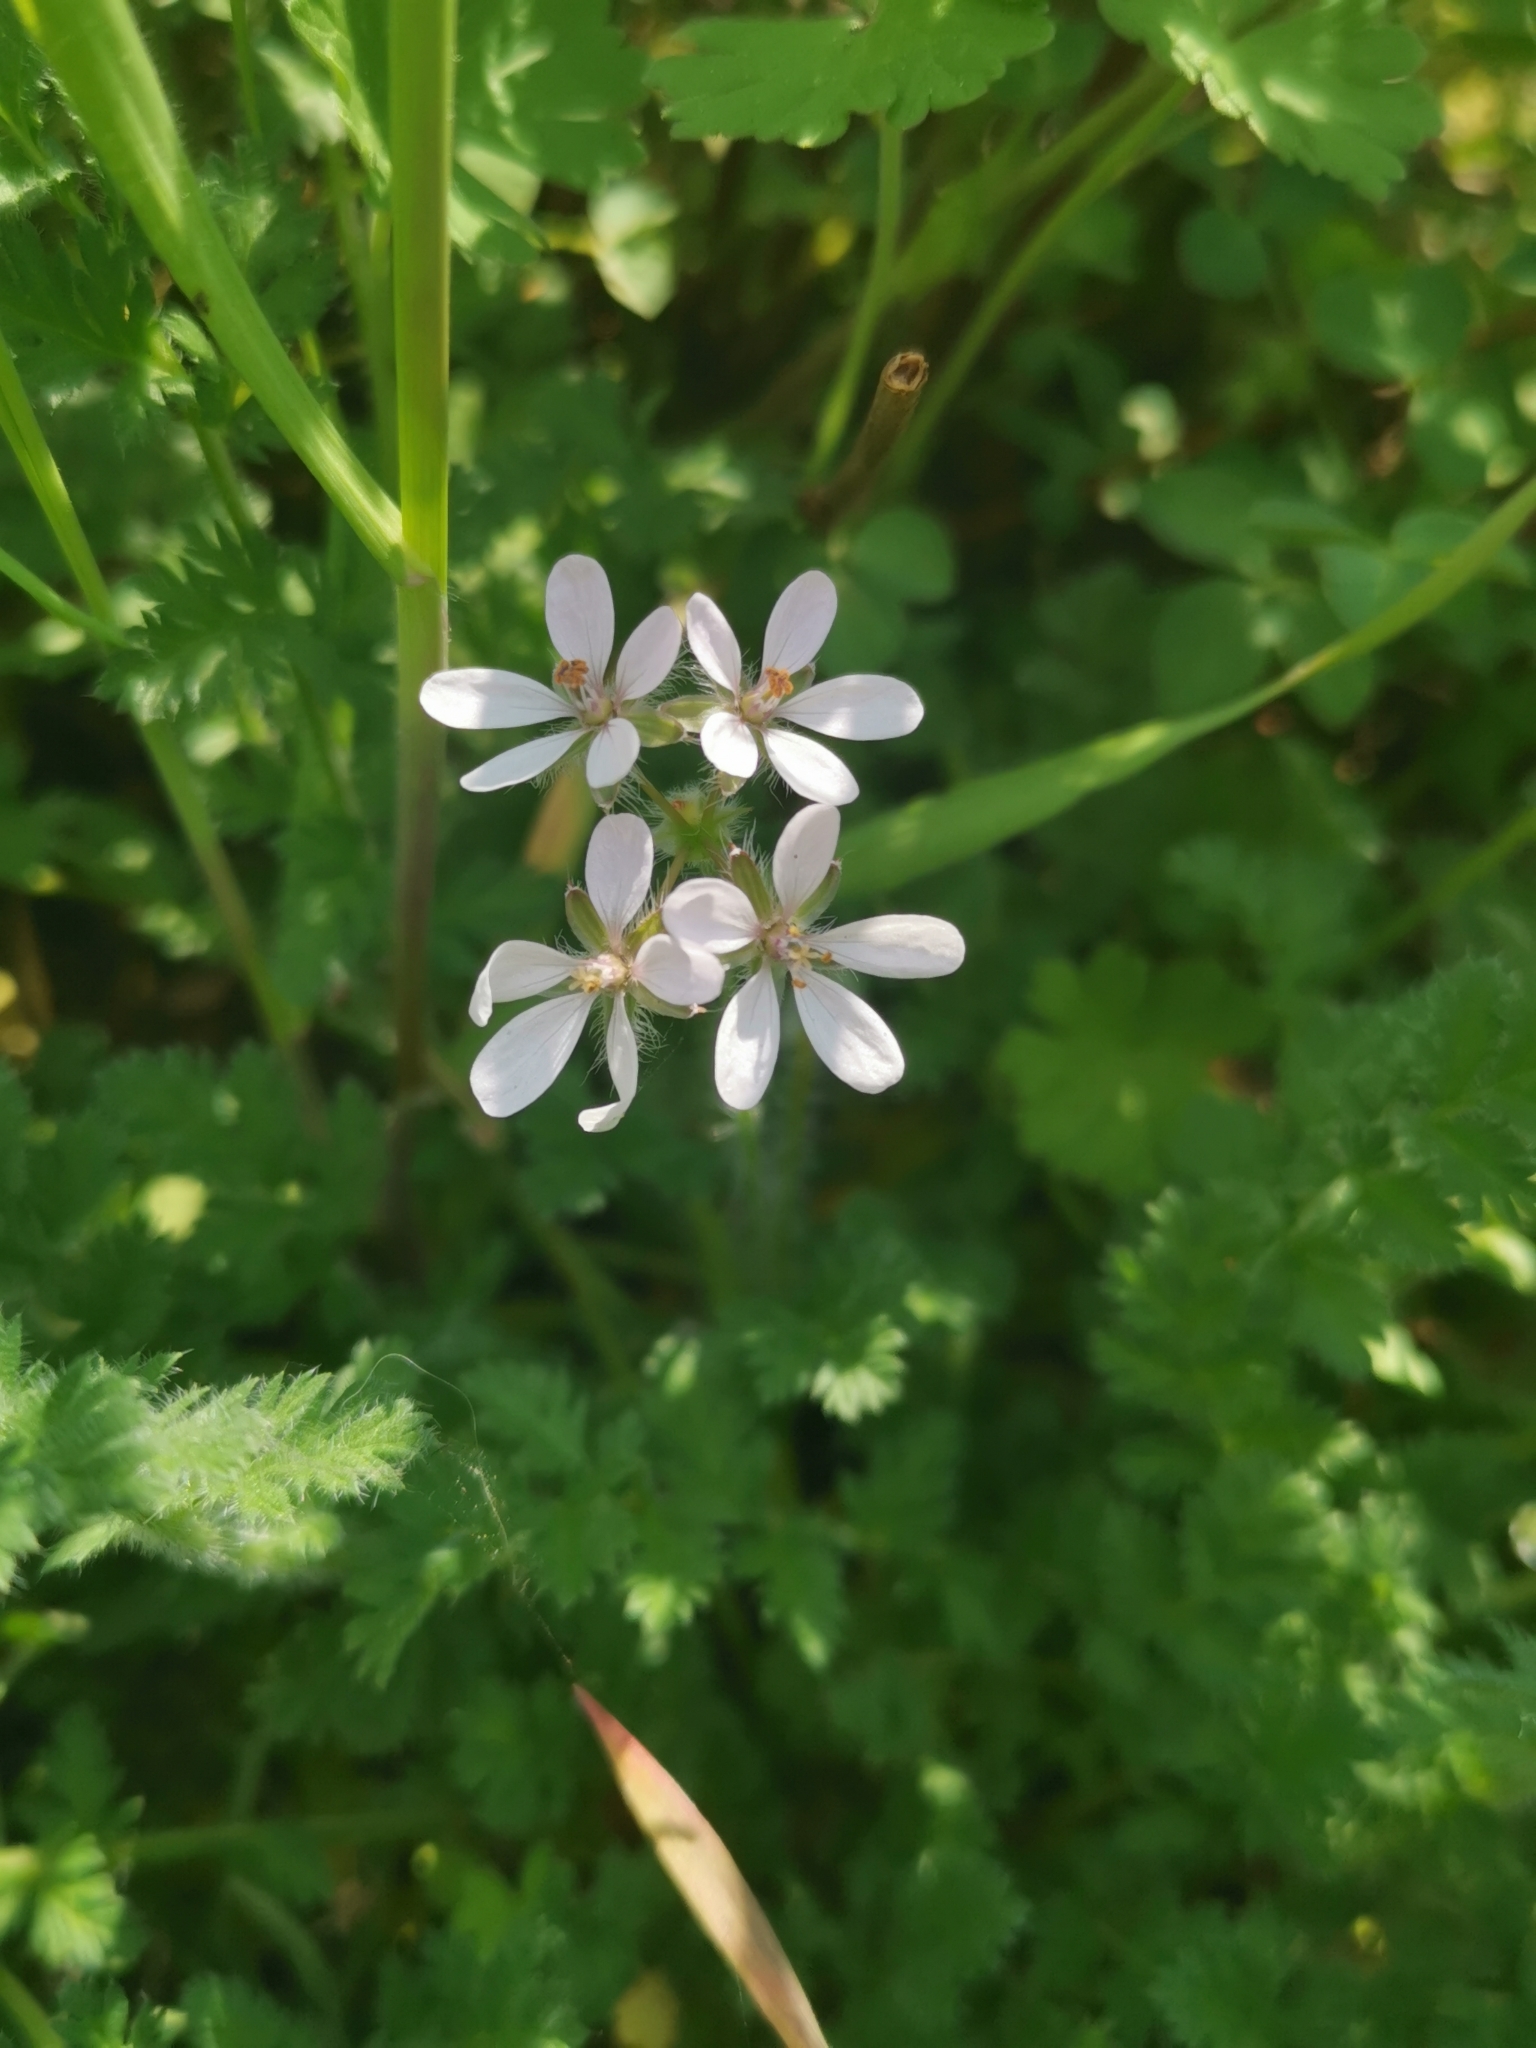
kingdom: Plantae
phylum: Tracheophyta
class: Magnoliopsida
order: Geraniales
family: Geraniaceae
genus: Erodium
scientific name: Erodium cicutarium
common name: Common stork's-bill
